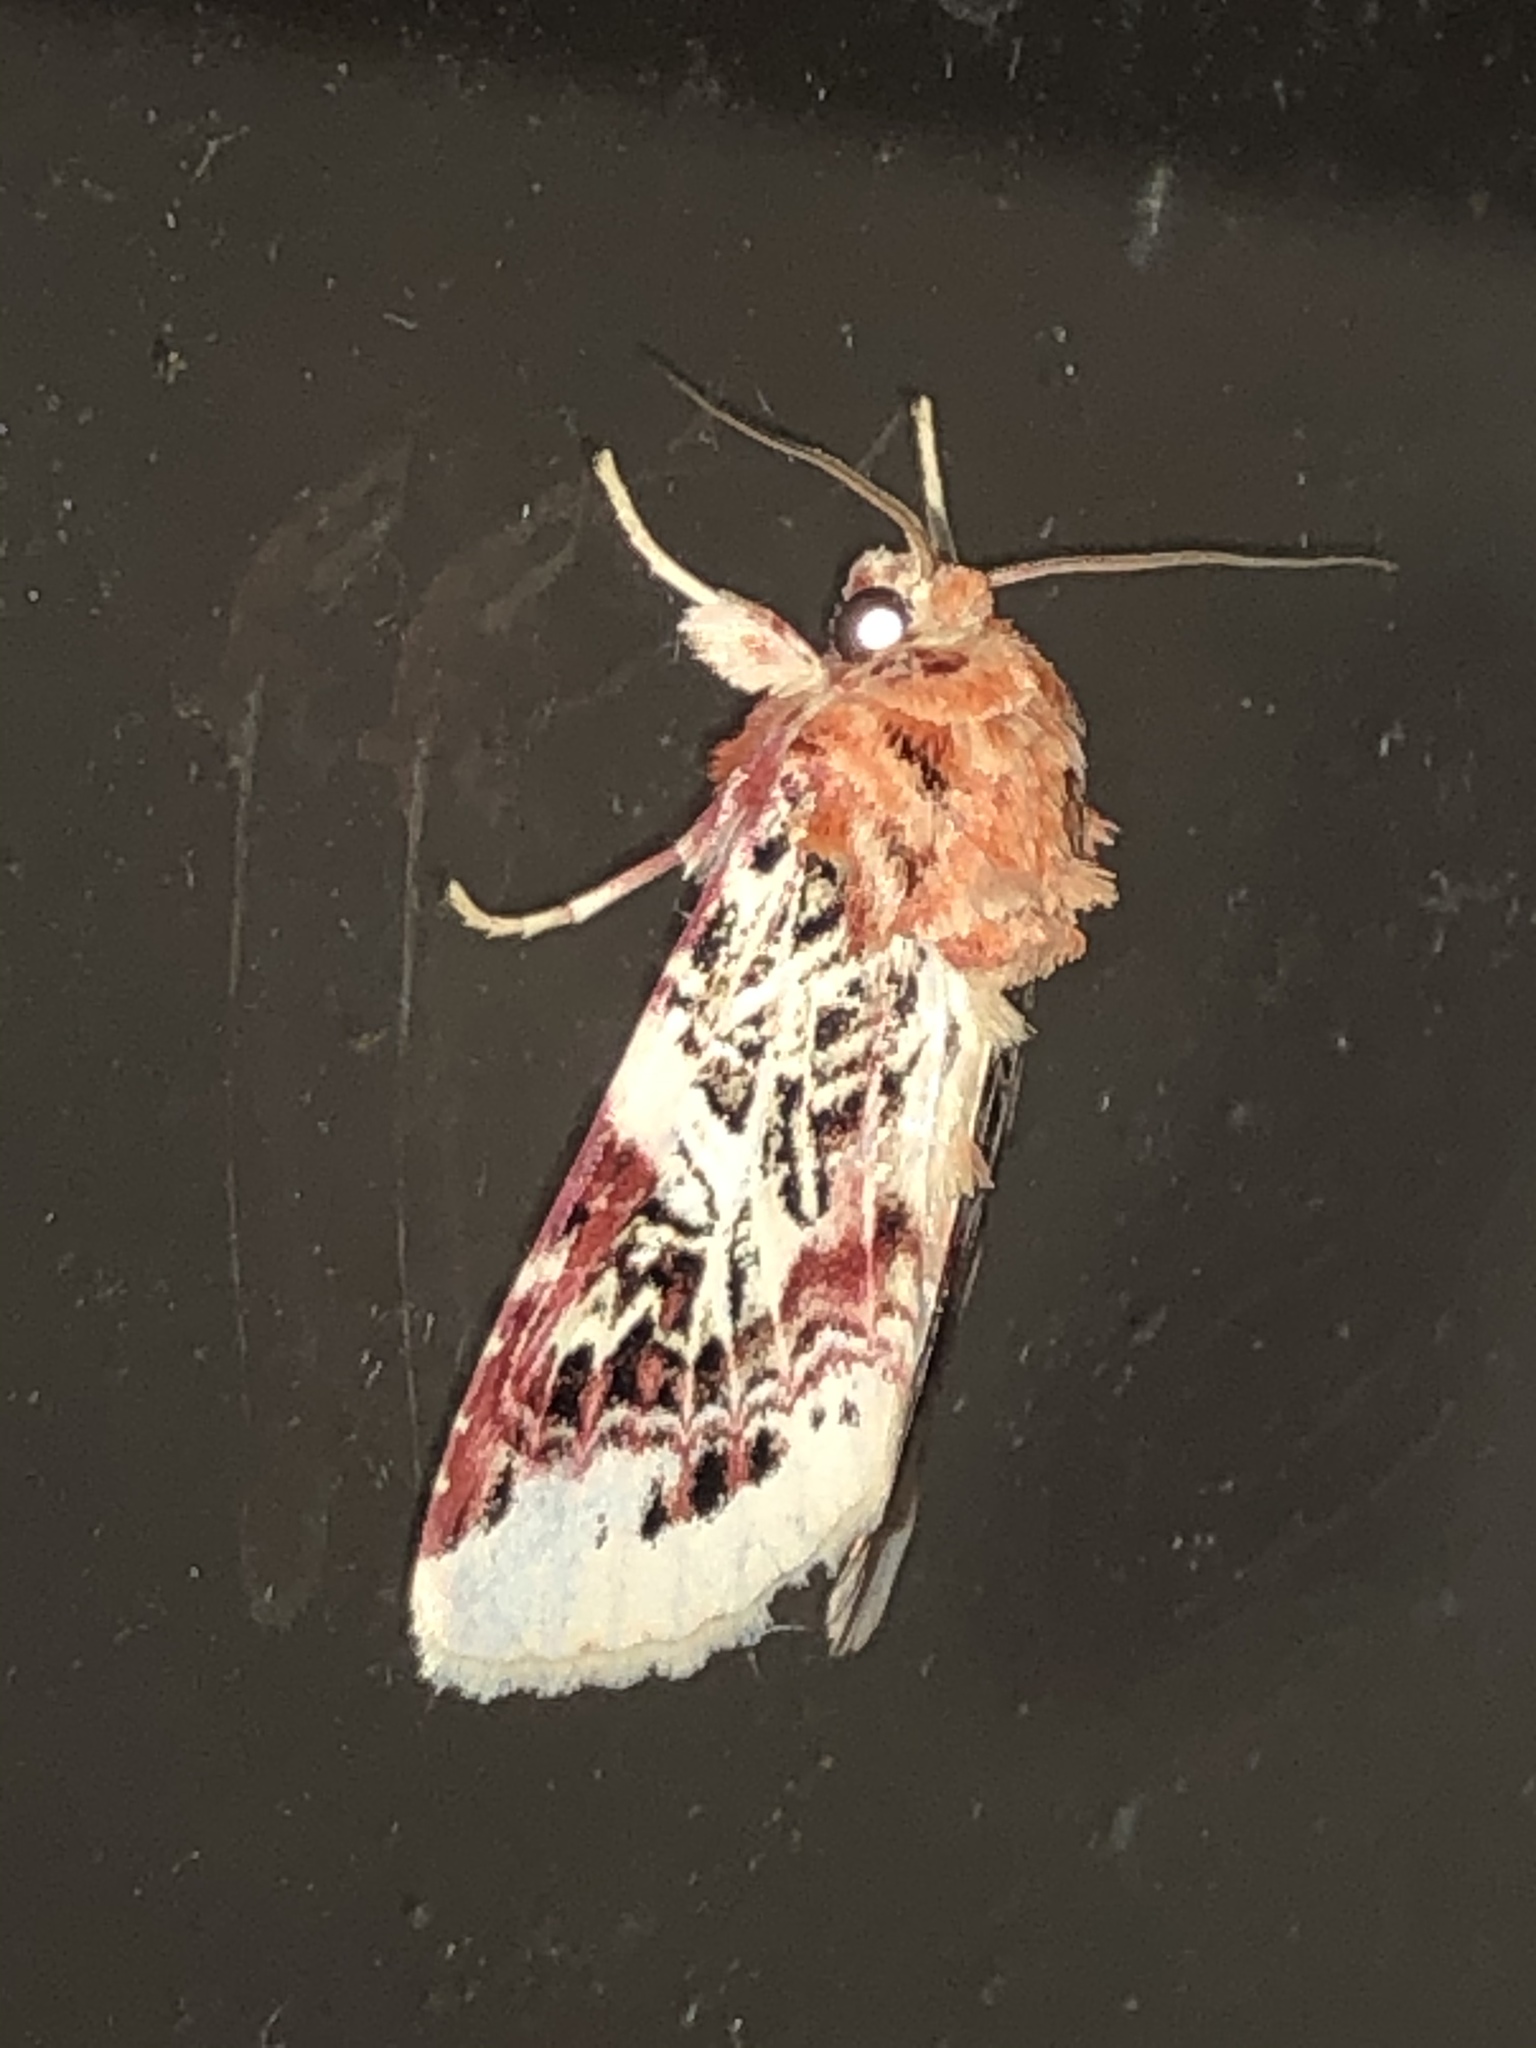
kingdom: Animalia
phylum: Arthropoda
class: Insecta
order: Lepidoptera
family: Noctuidae
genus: Spodoptera
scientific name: Spodoptera picta
